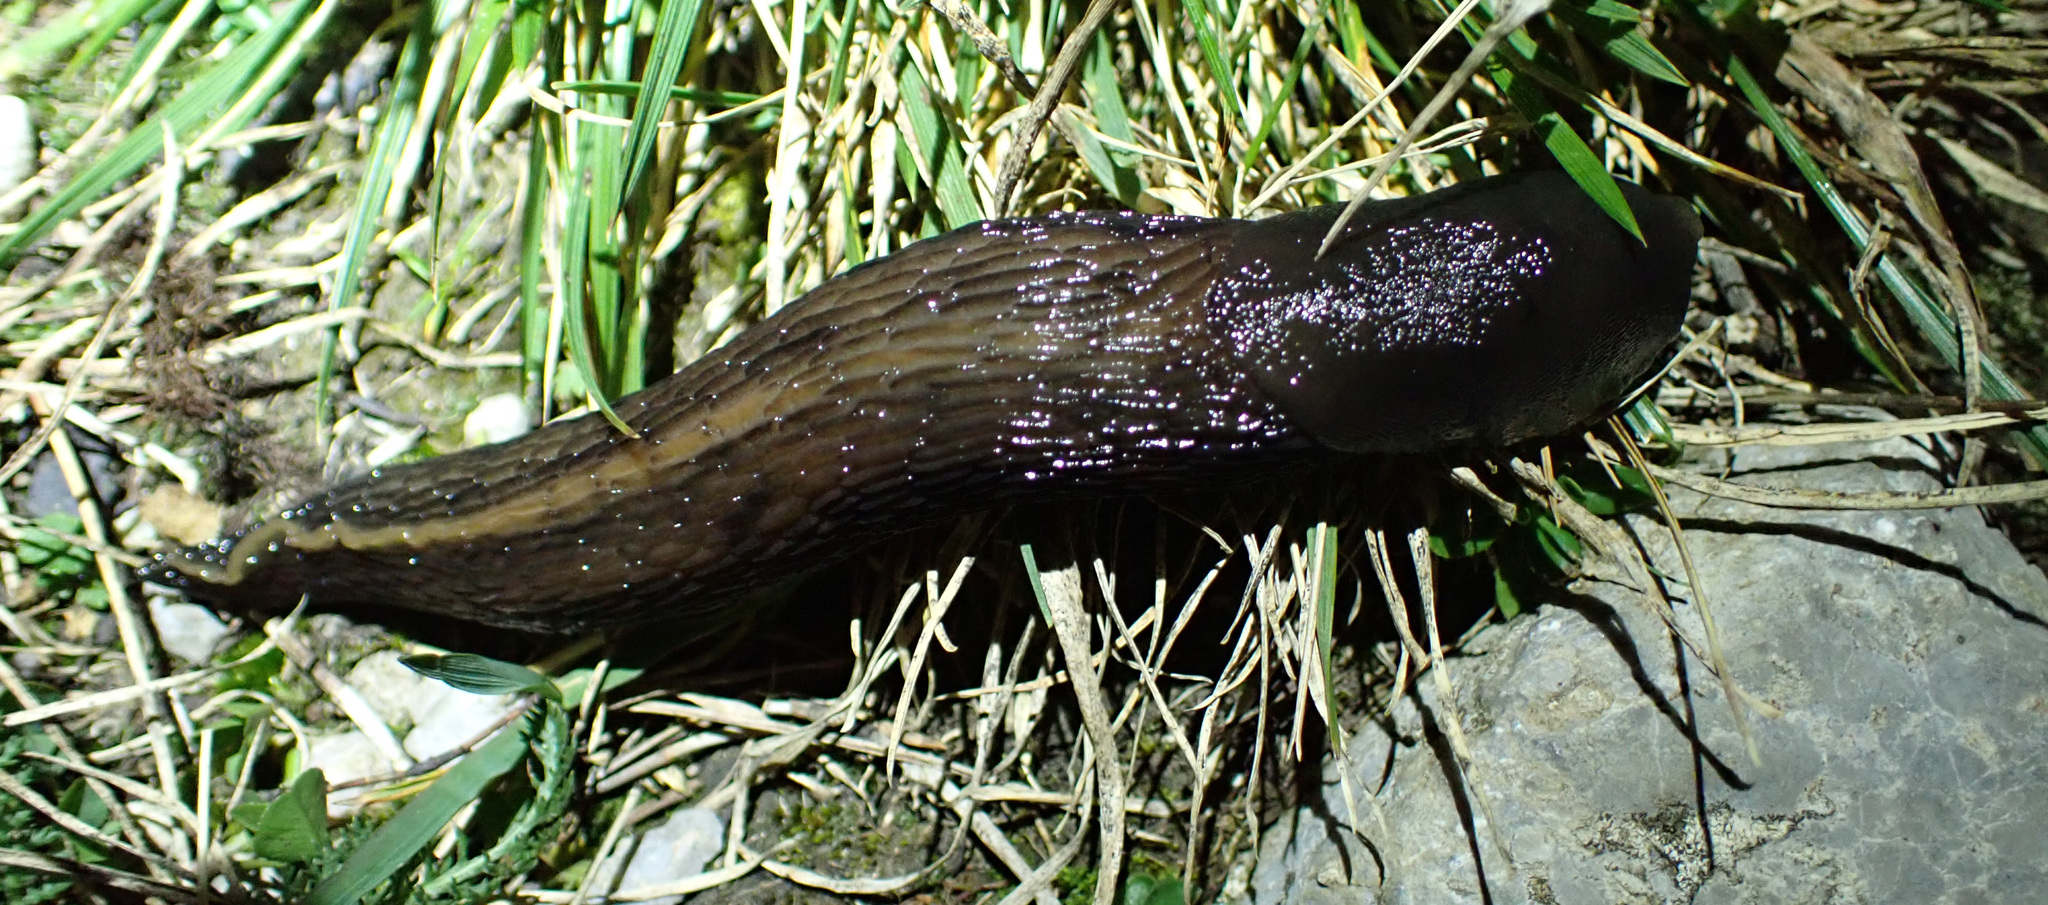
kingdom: Animalia
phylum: Mollusca
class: Gastropoda
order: Stylommatophora
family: Limacidae
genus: Limax
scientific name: Limax cinereoniger
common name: Ash-black slug
